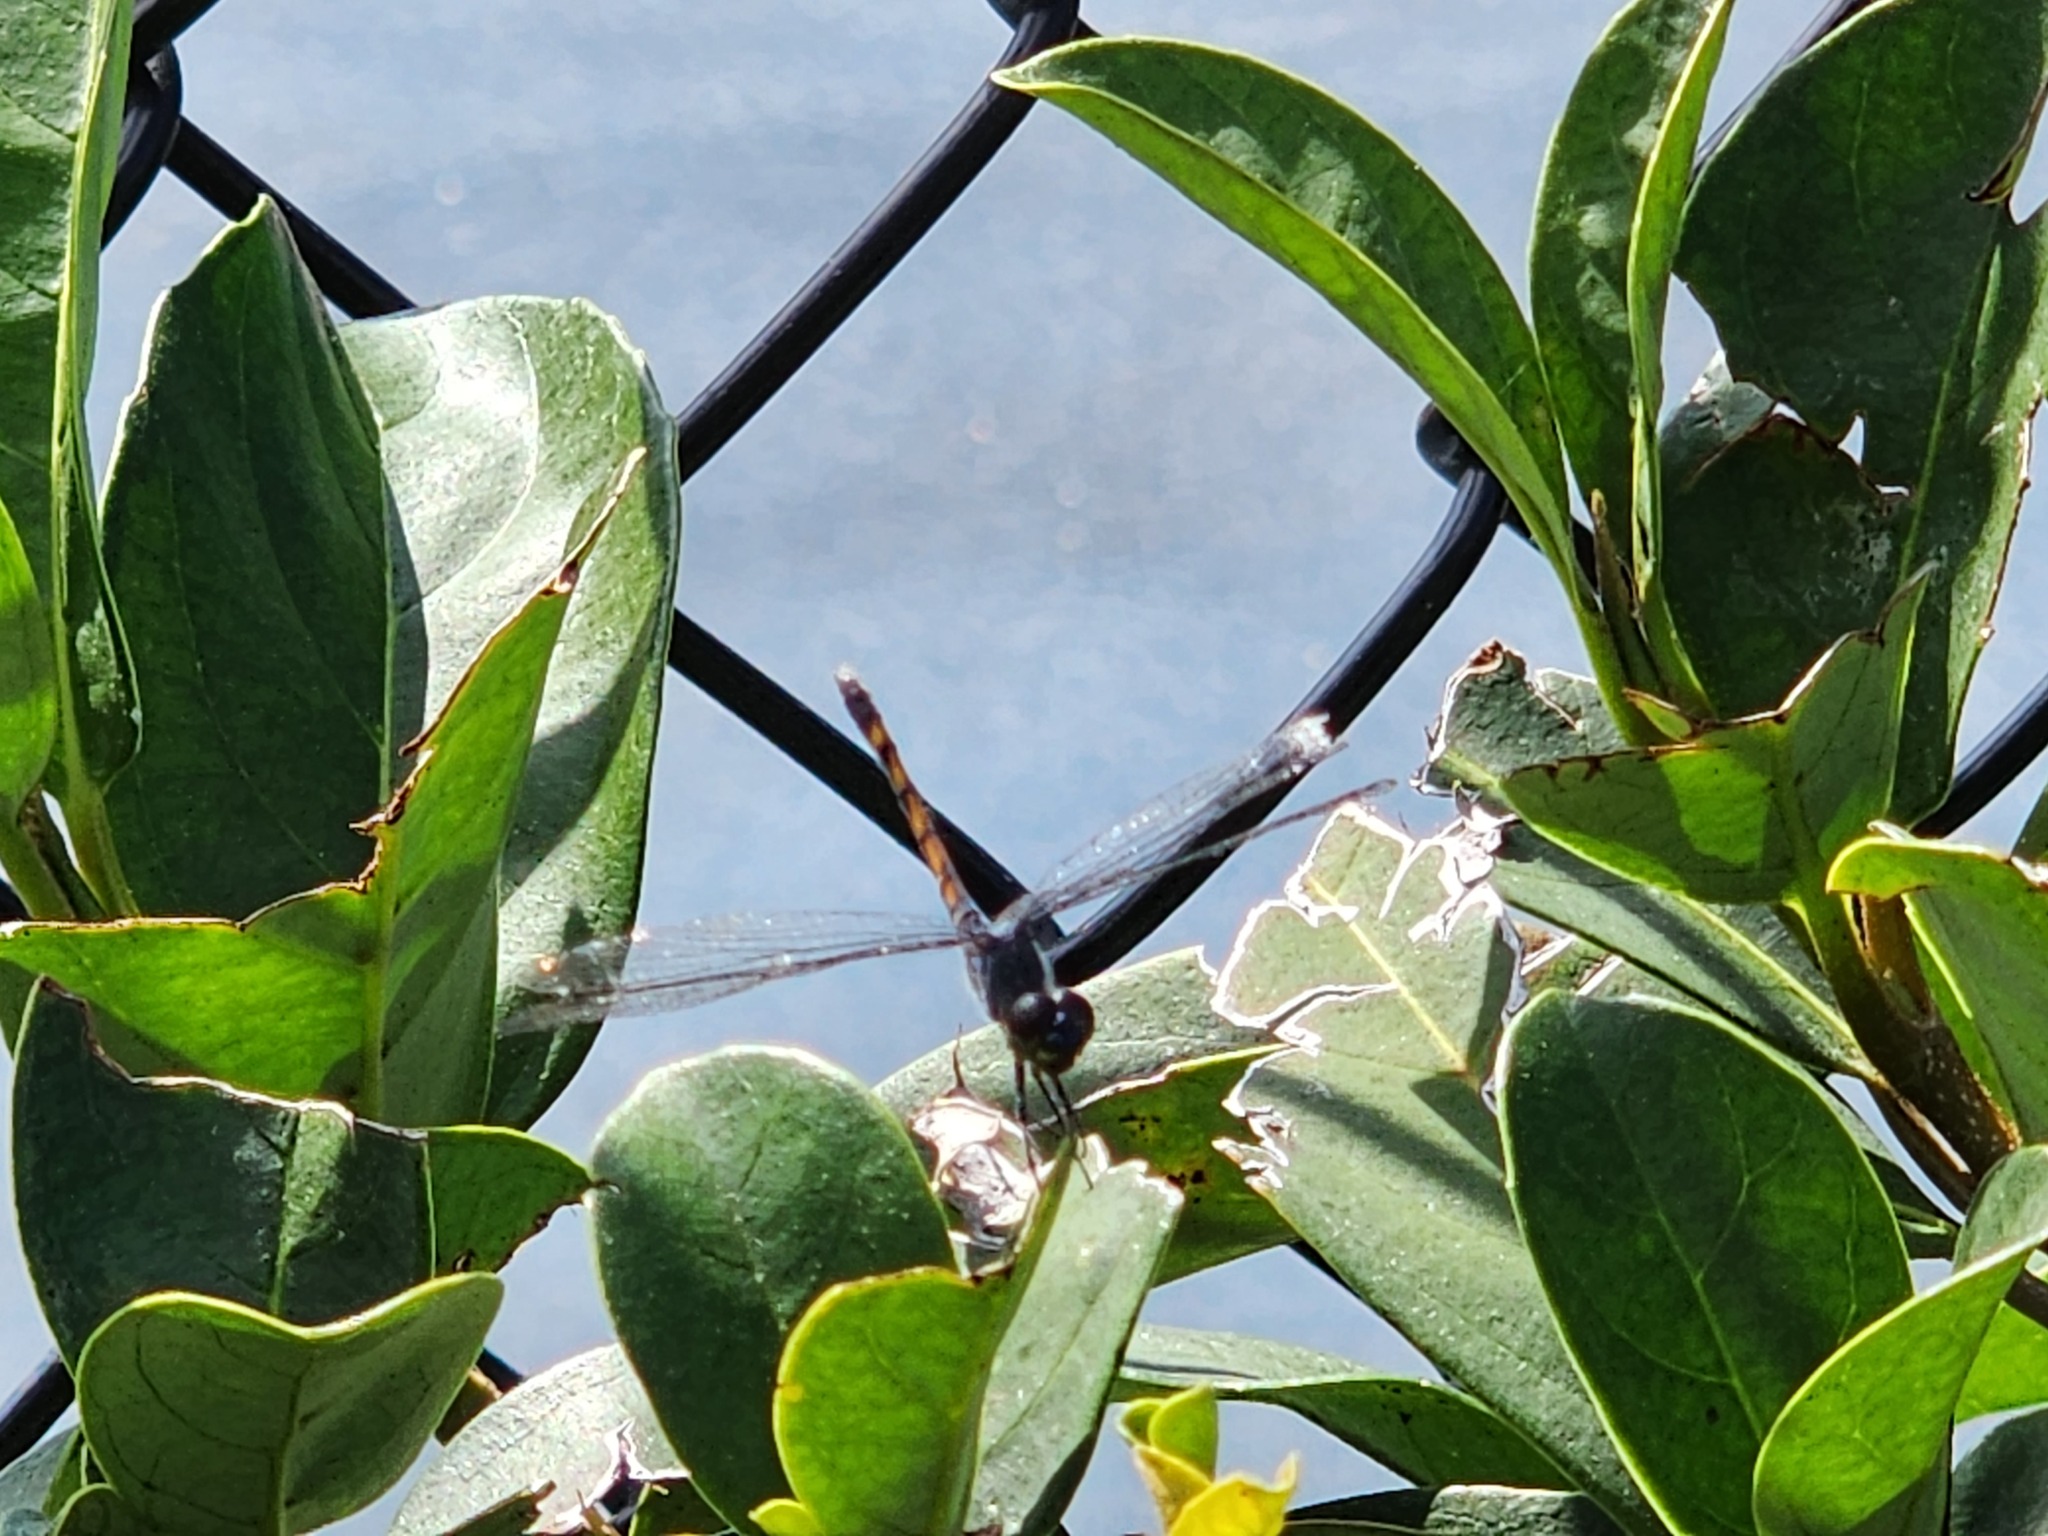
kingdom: Animalia
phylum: Arthropoda
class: Insecta
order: Odonata
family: Libellulidae
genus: Erythrodiplax
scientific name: Erythrodiplax berenice
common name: Seaside dragonlet
